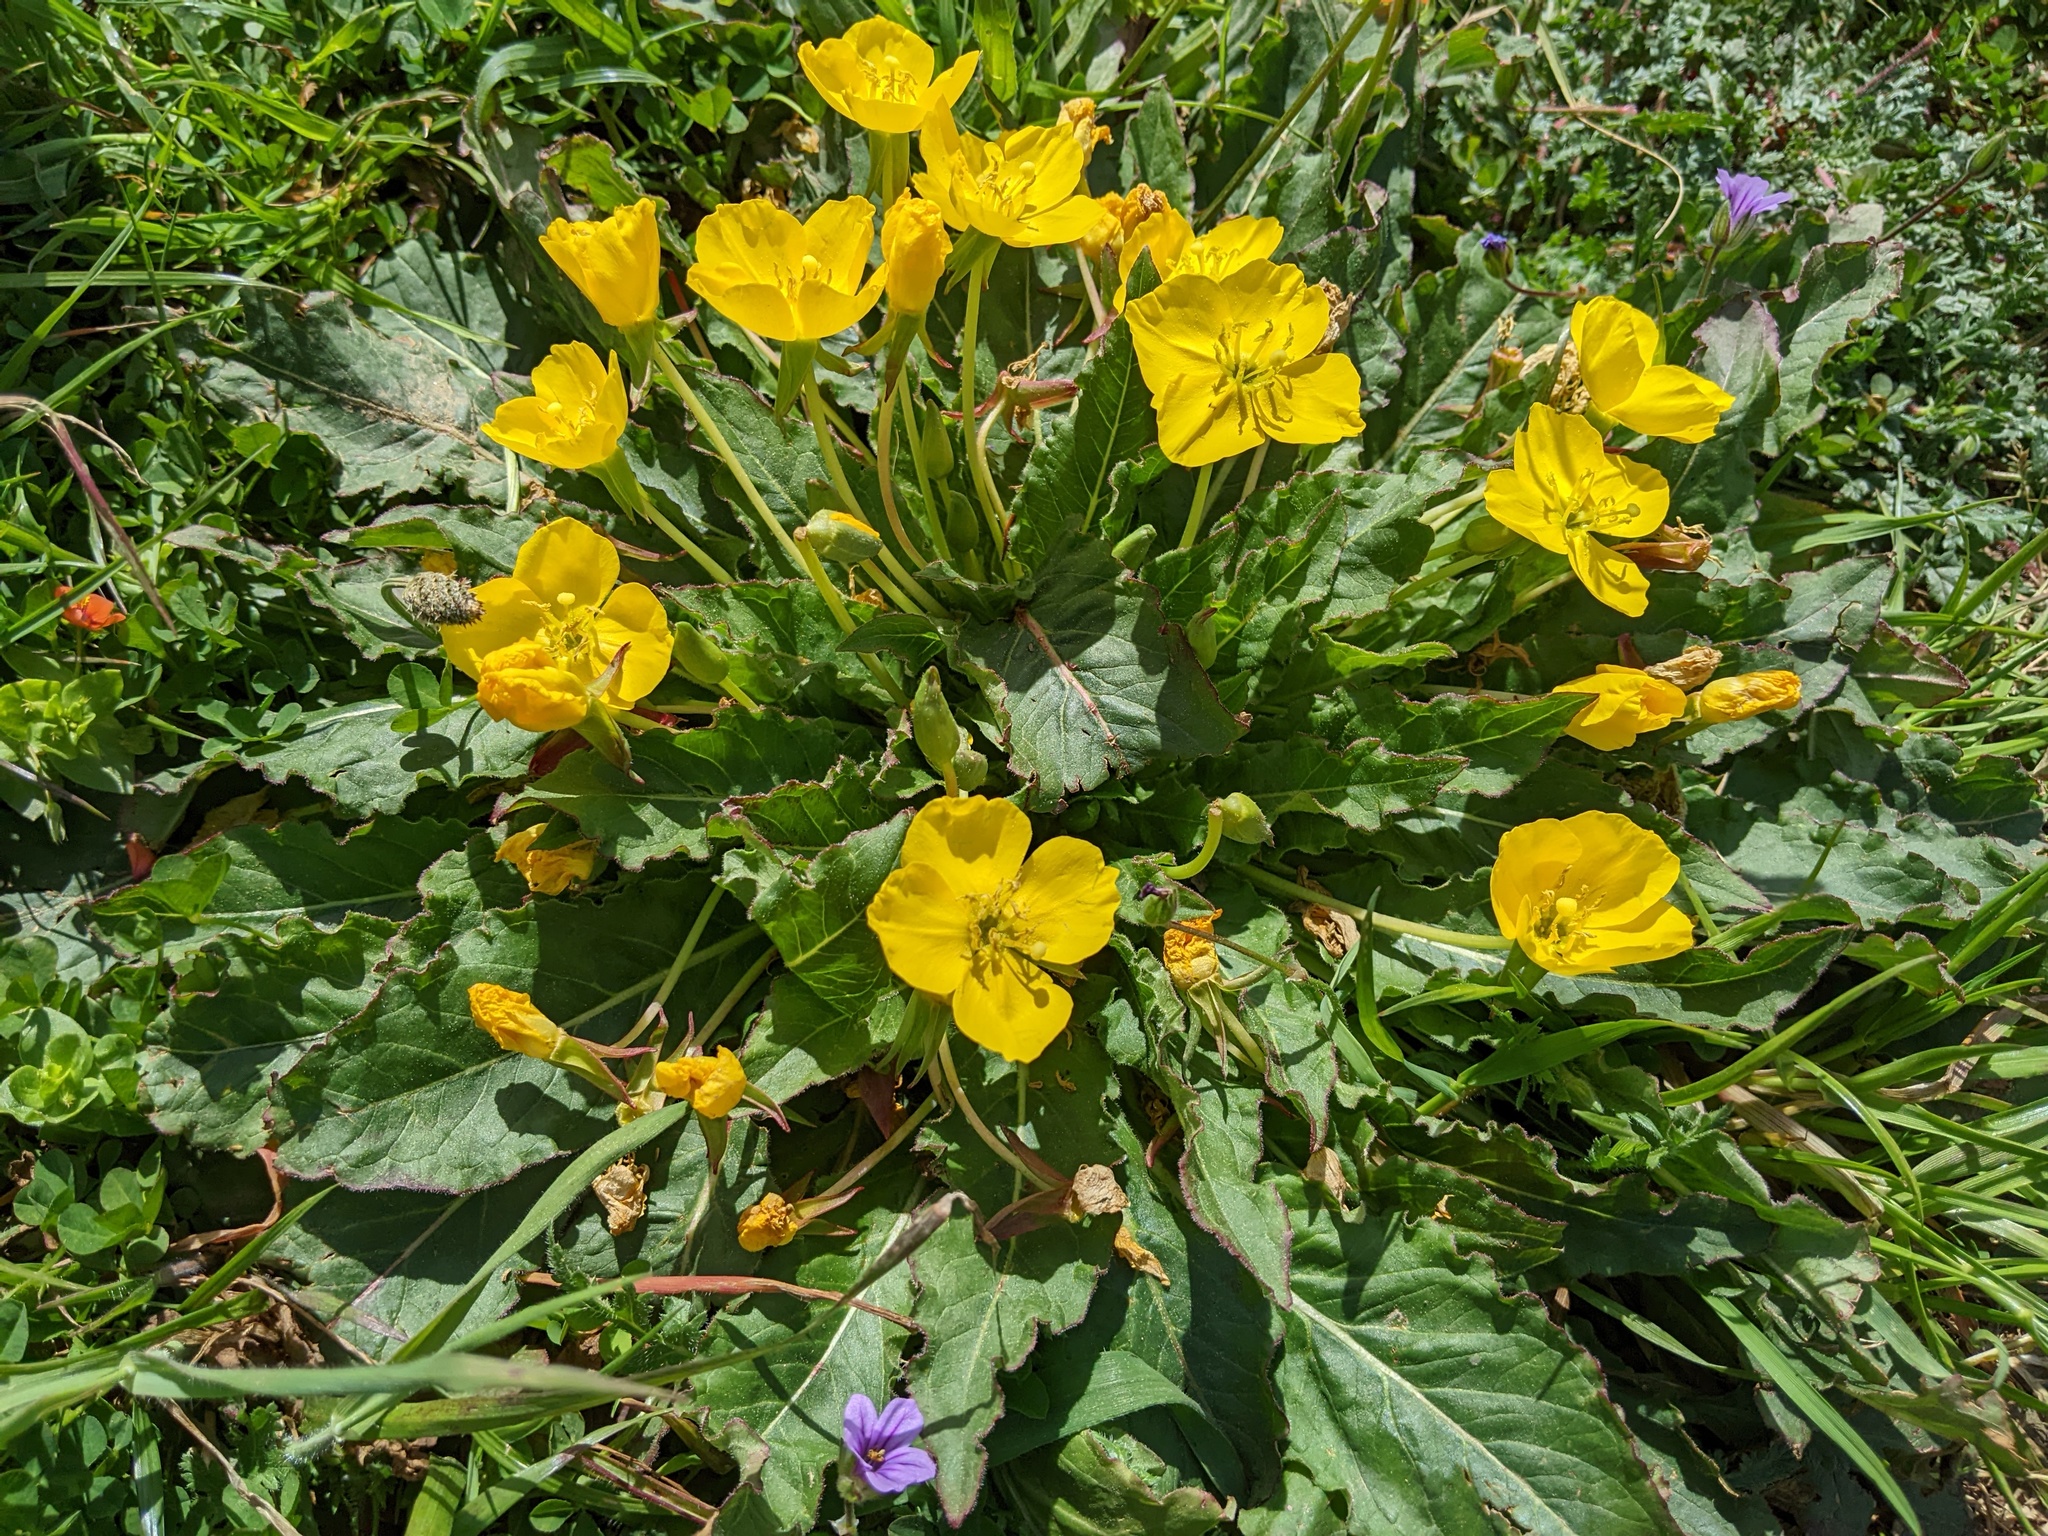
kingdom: Plantae
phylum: Tracheophyta
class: Magnoliopsida
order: Myrtales
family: Onagraceae
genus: Taraxia
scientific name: Taraxia ovata
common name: Goldeneggs
